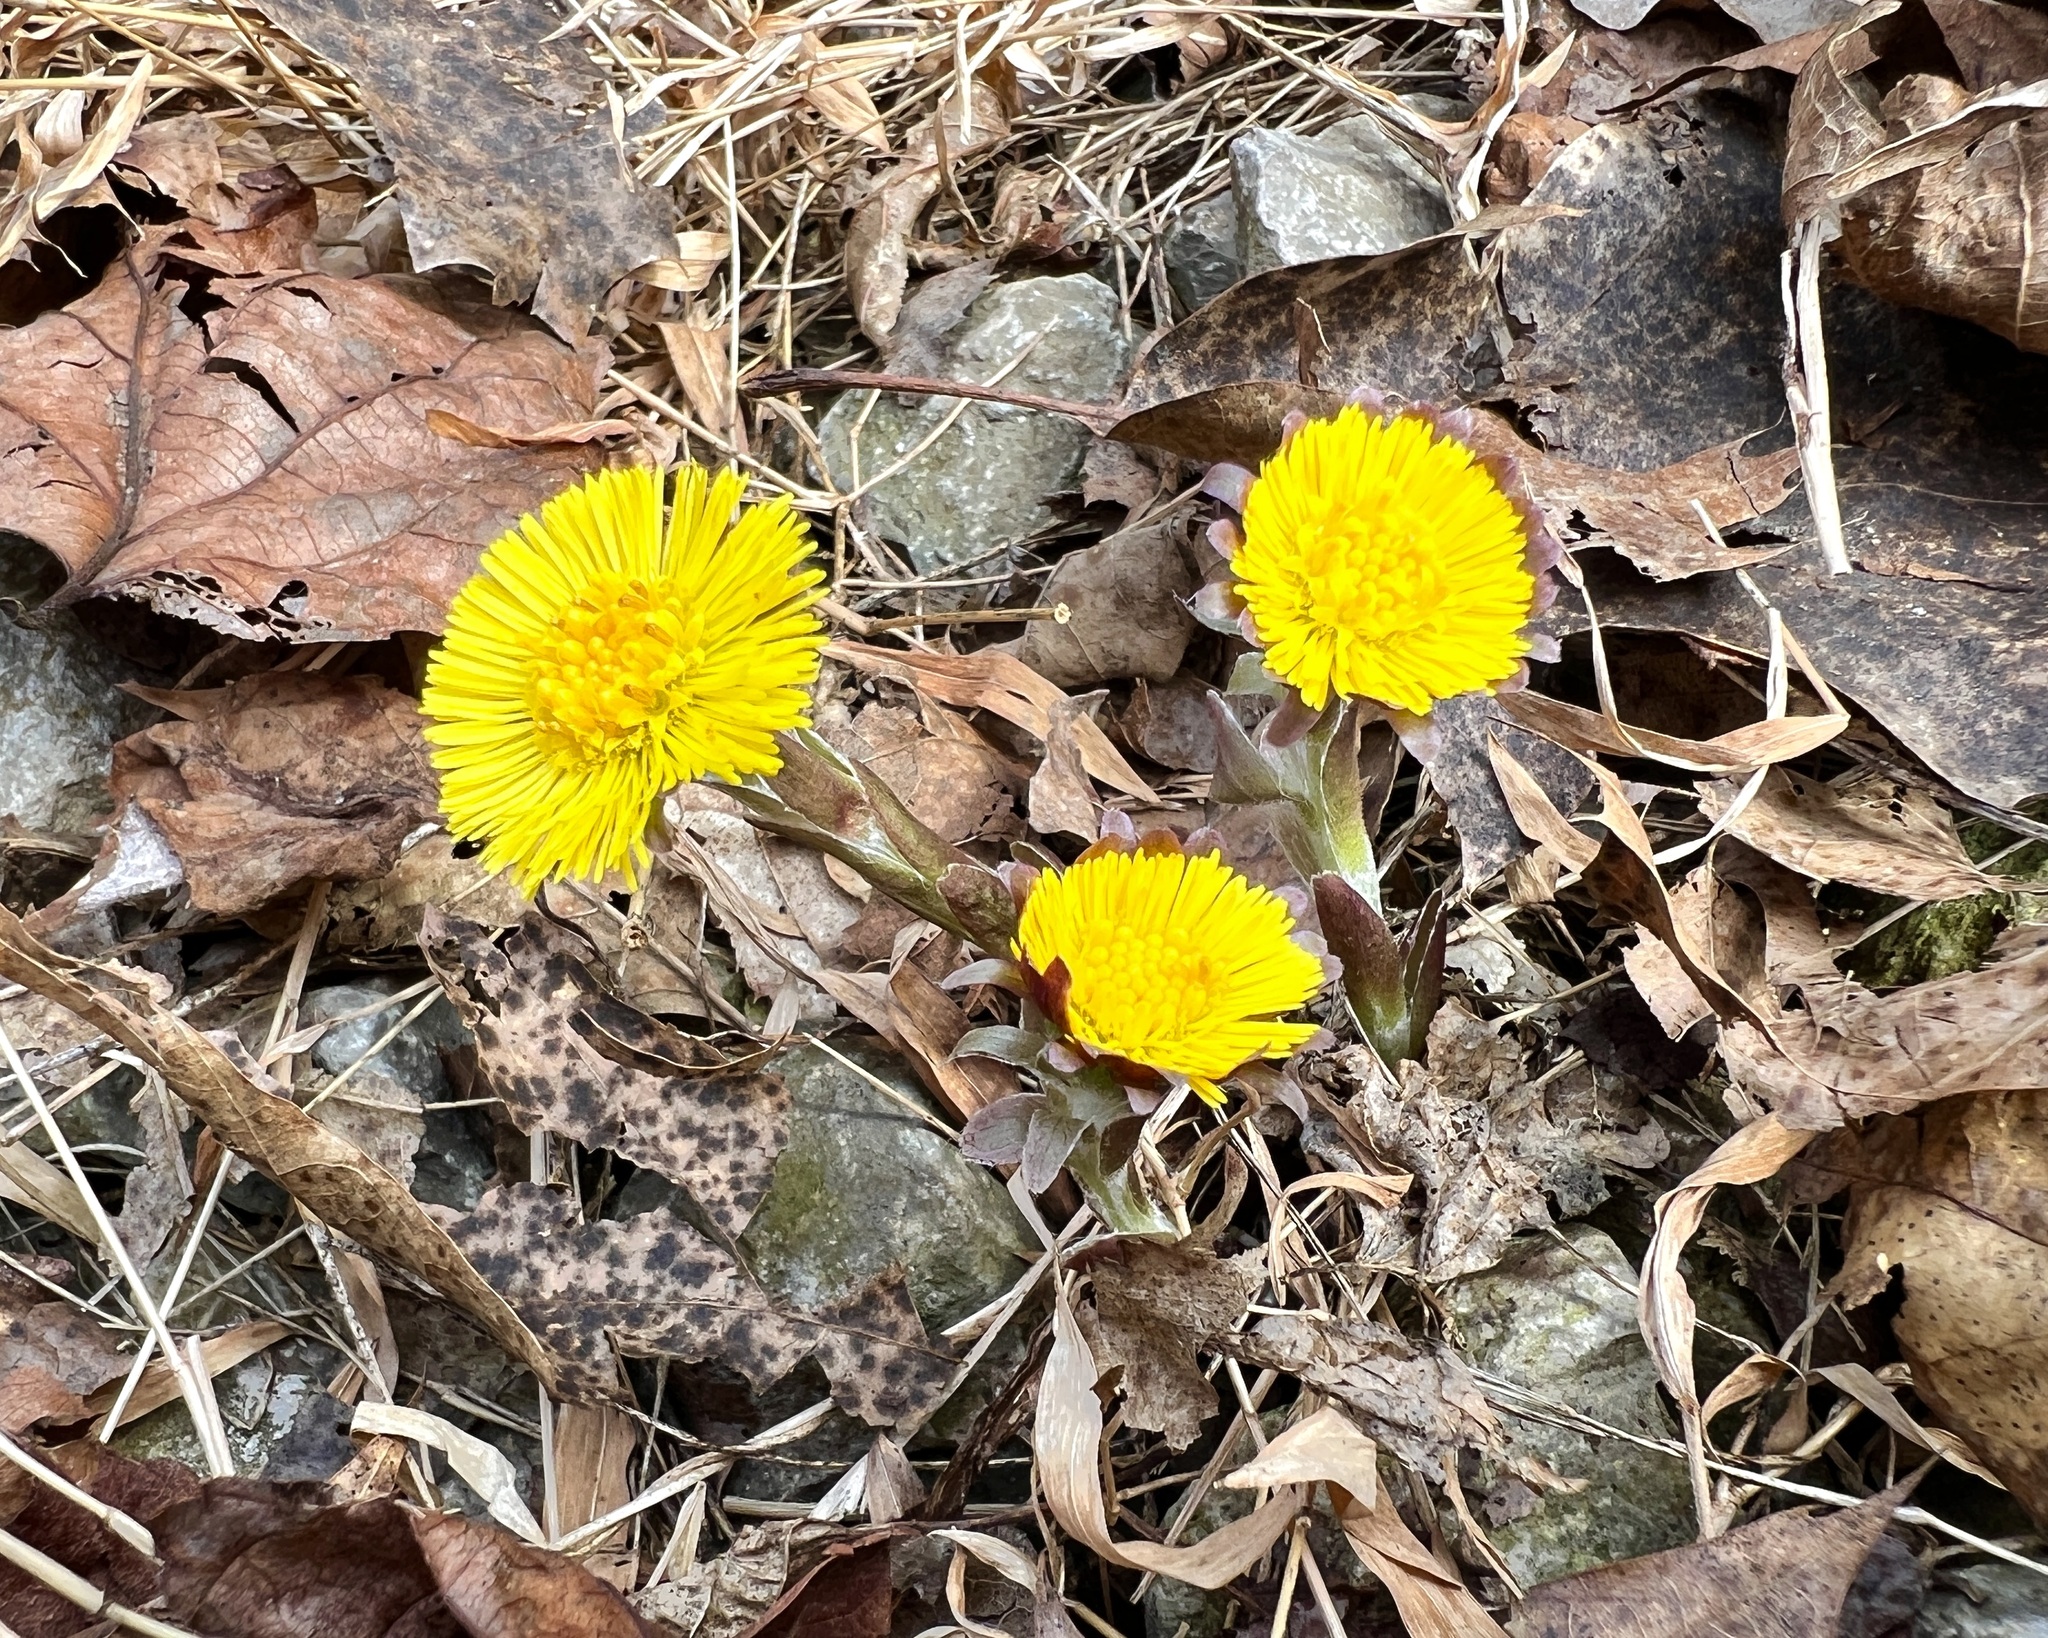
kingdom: Plantae
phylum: Tracheophyta
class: Magnoliopsida
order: Asterales
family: Asteraceae
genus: Tussilago
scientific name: Tussilago farfara
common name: Coltsfoot
